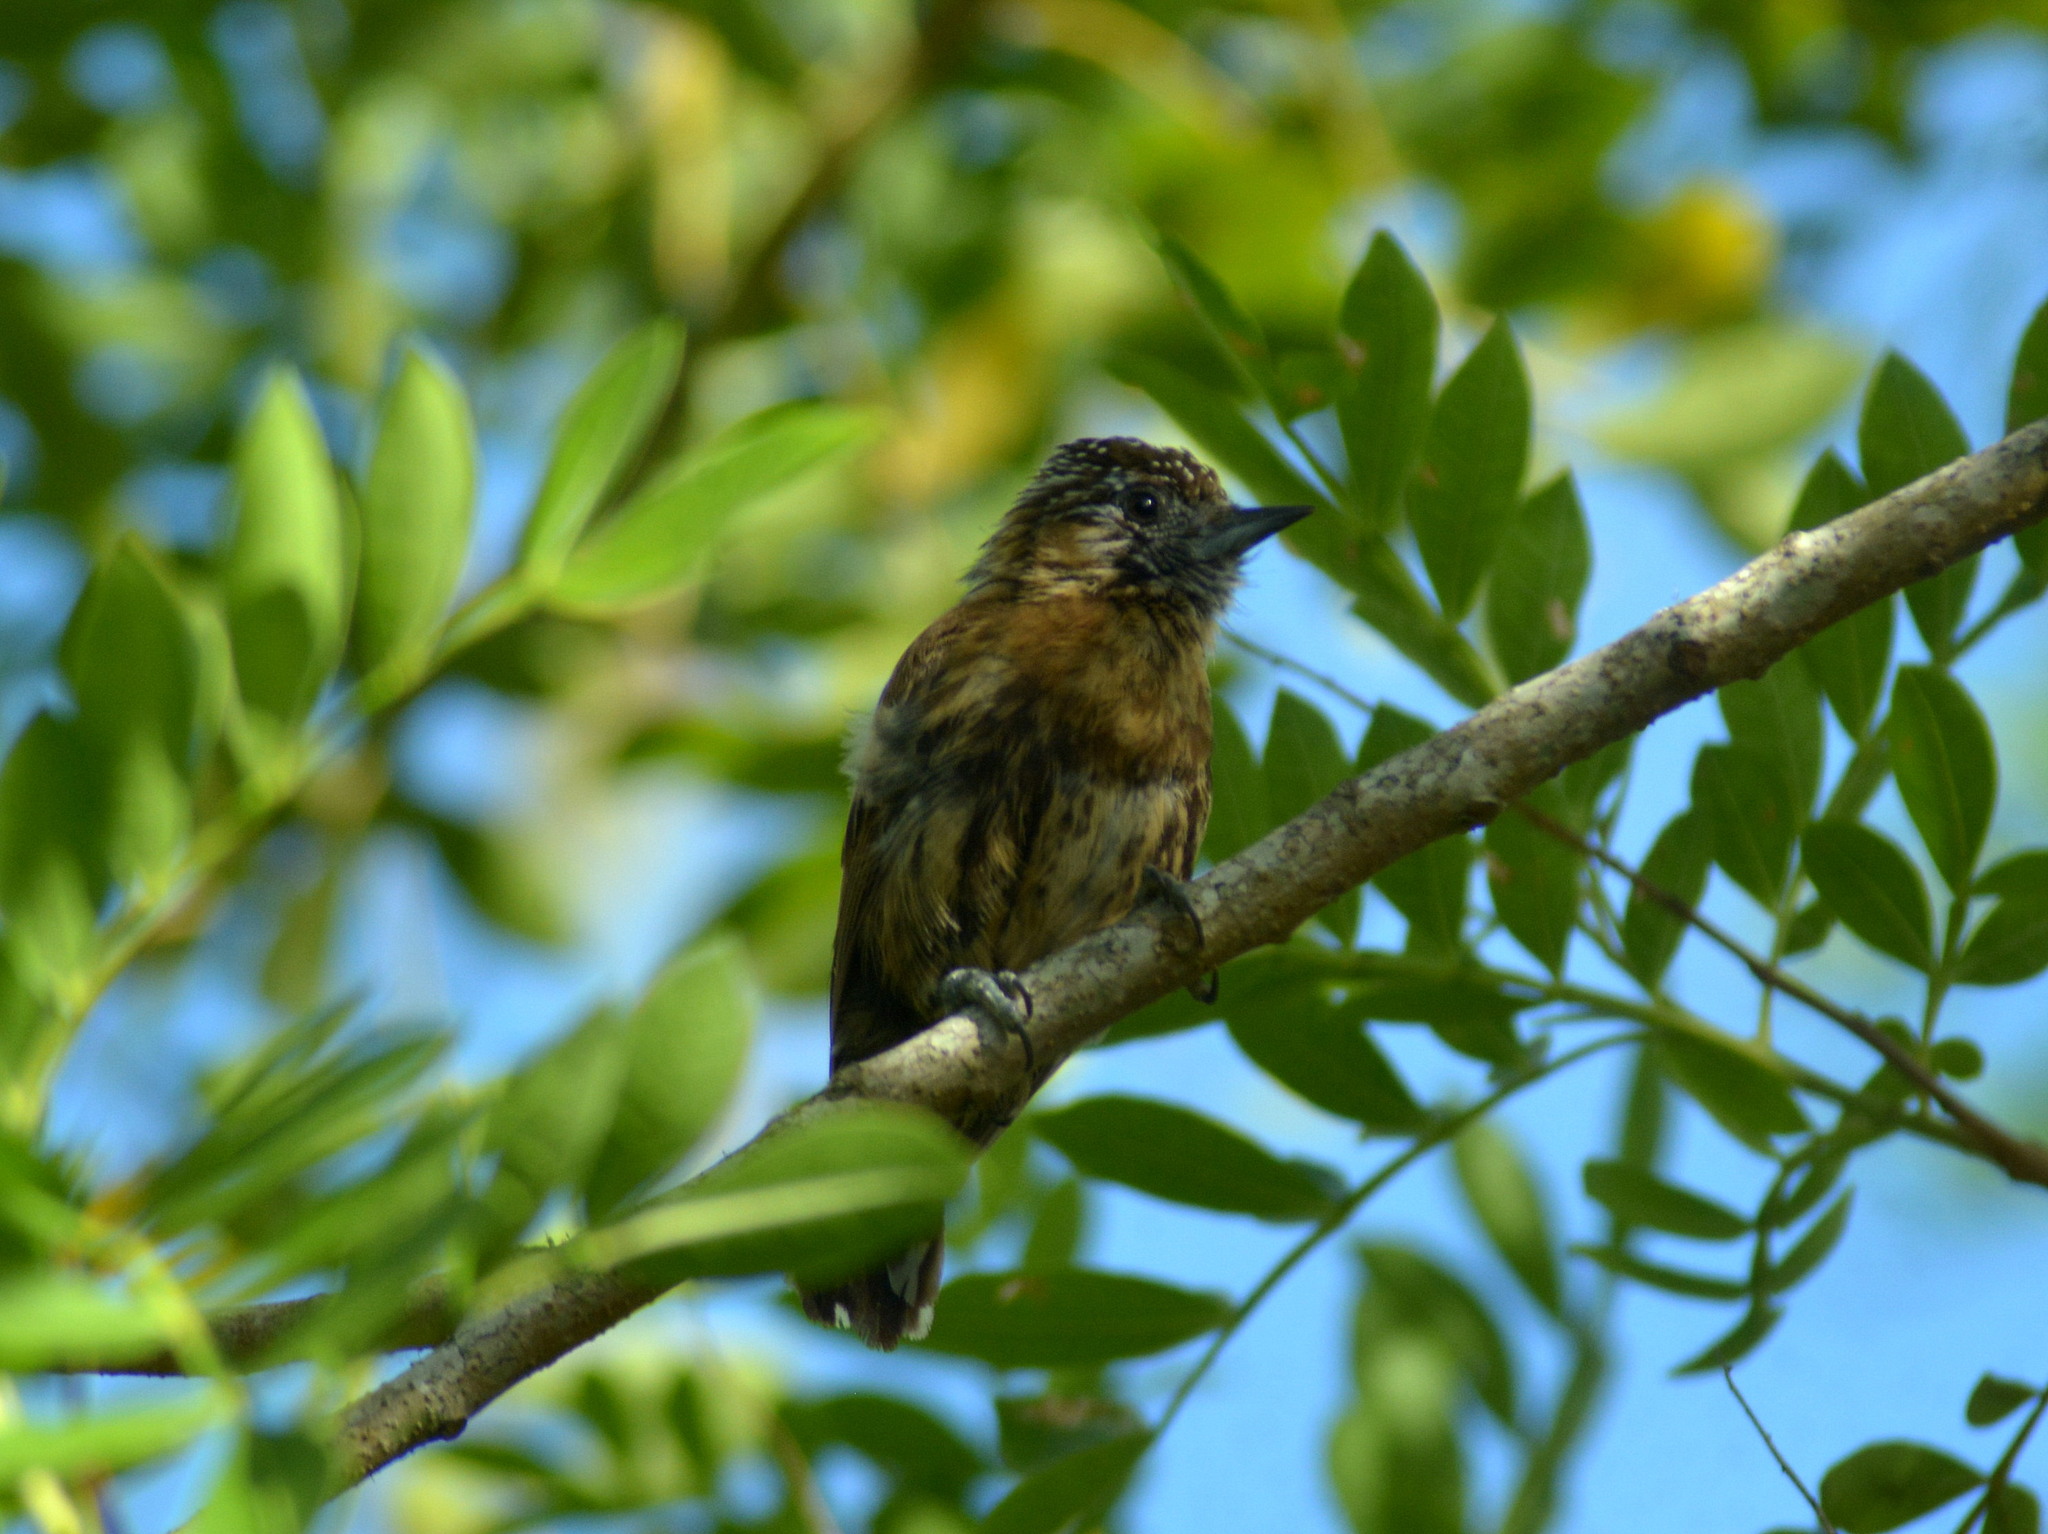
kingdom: Animalia
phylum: Chordata
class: Aves
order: Piciformes
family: Picidae
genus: Picumnus
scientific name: Picumnus nebulosus
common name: Mottled piculet
